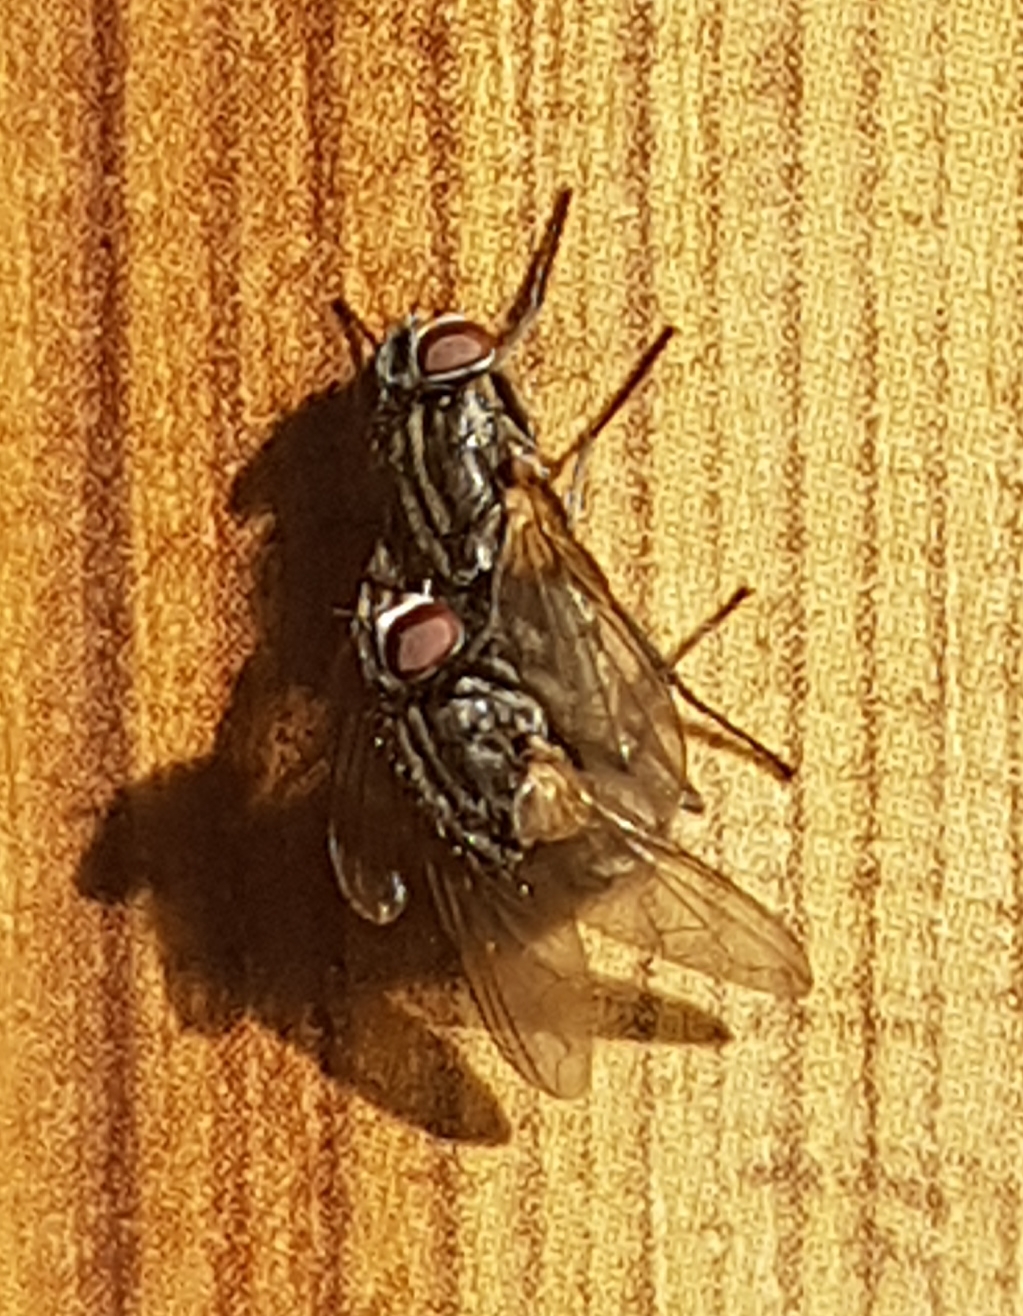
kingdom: Animalia
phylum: Arthropoda
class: Insecta
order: Diptera
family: Muscidae
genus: Musca
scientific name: Musca domestica
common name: House fly
